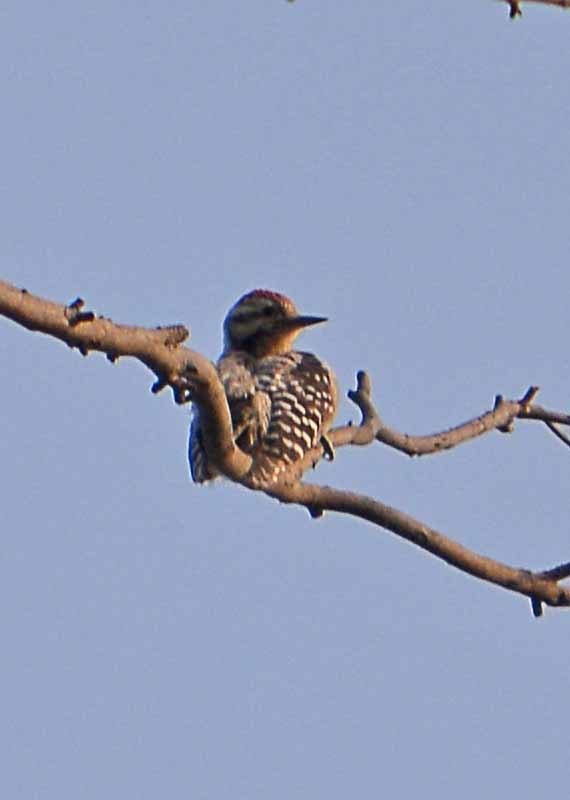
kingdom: Animalia
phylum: Chordata
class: Aves
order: Piciformes
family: Picidae
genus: Dryobates
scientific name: Dryobates scalaris
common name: Ladder-backed woodpecker
